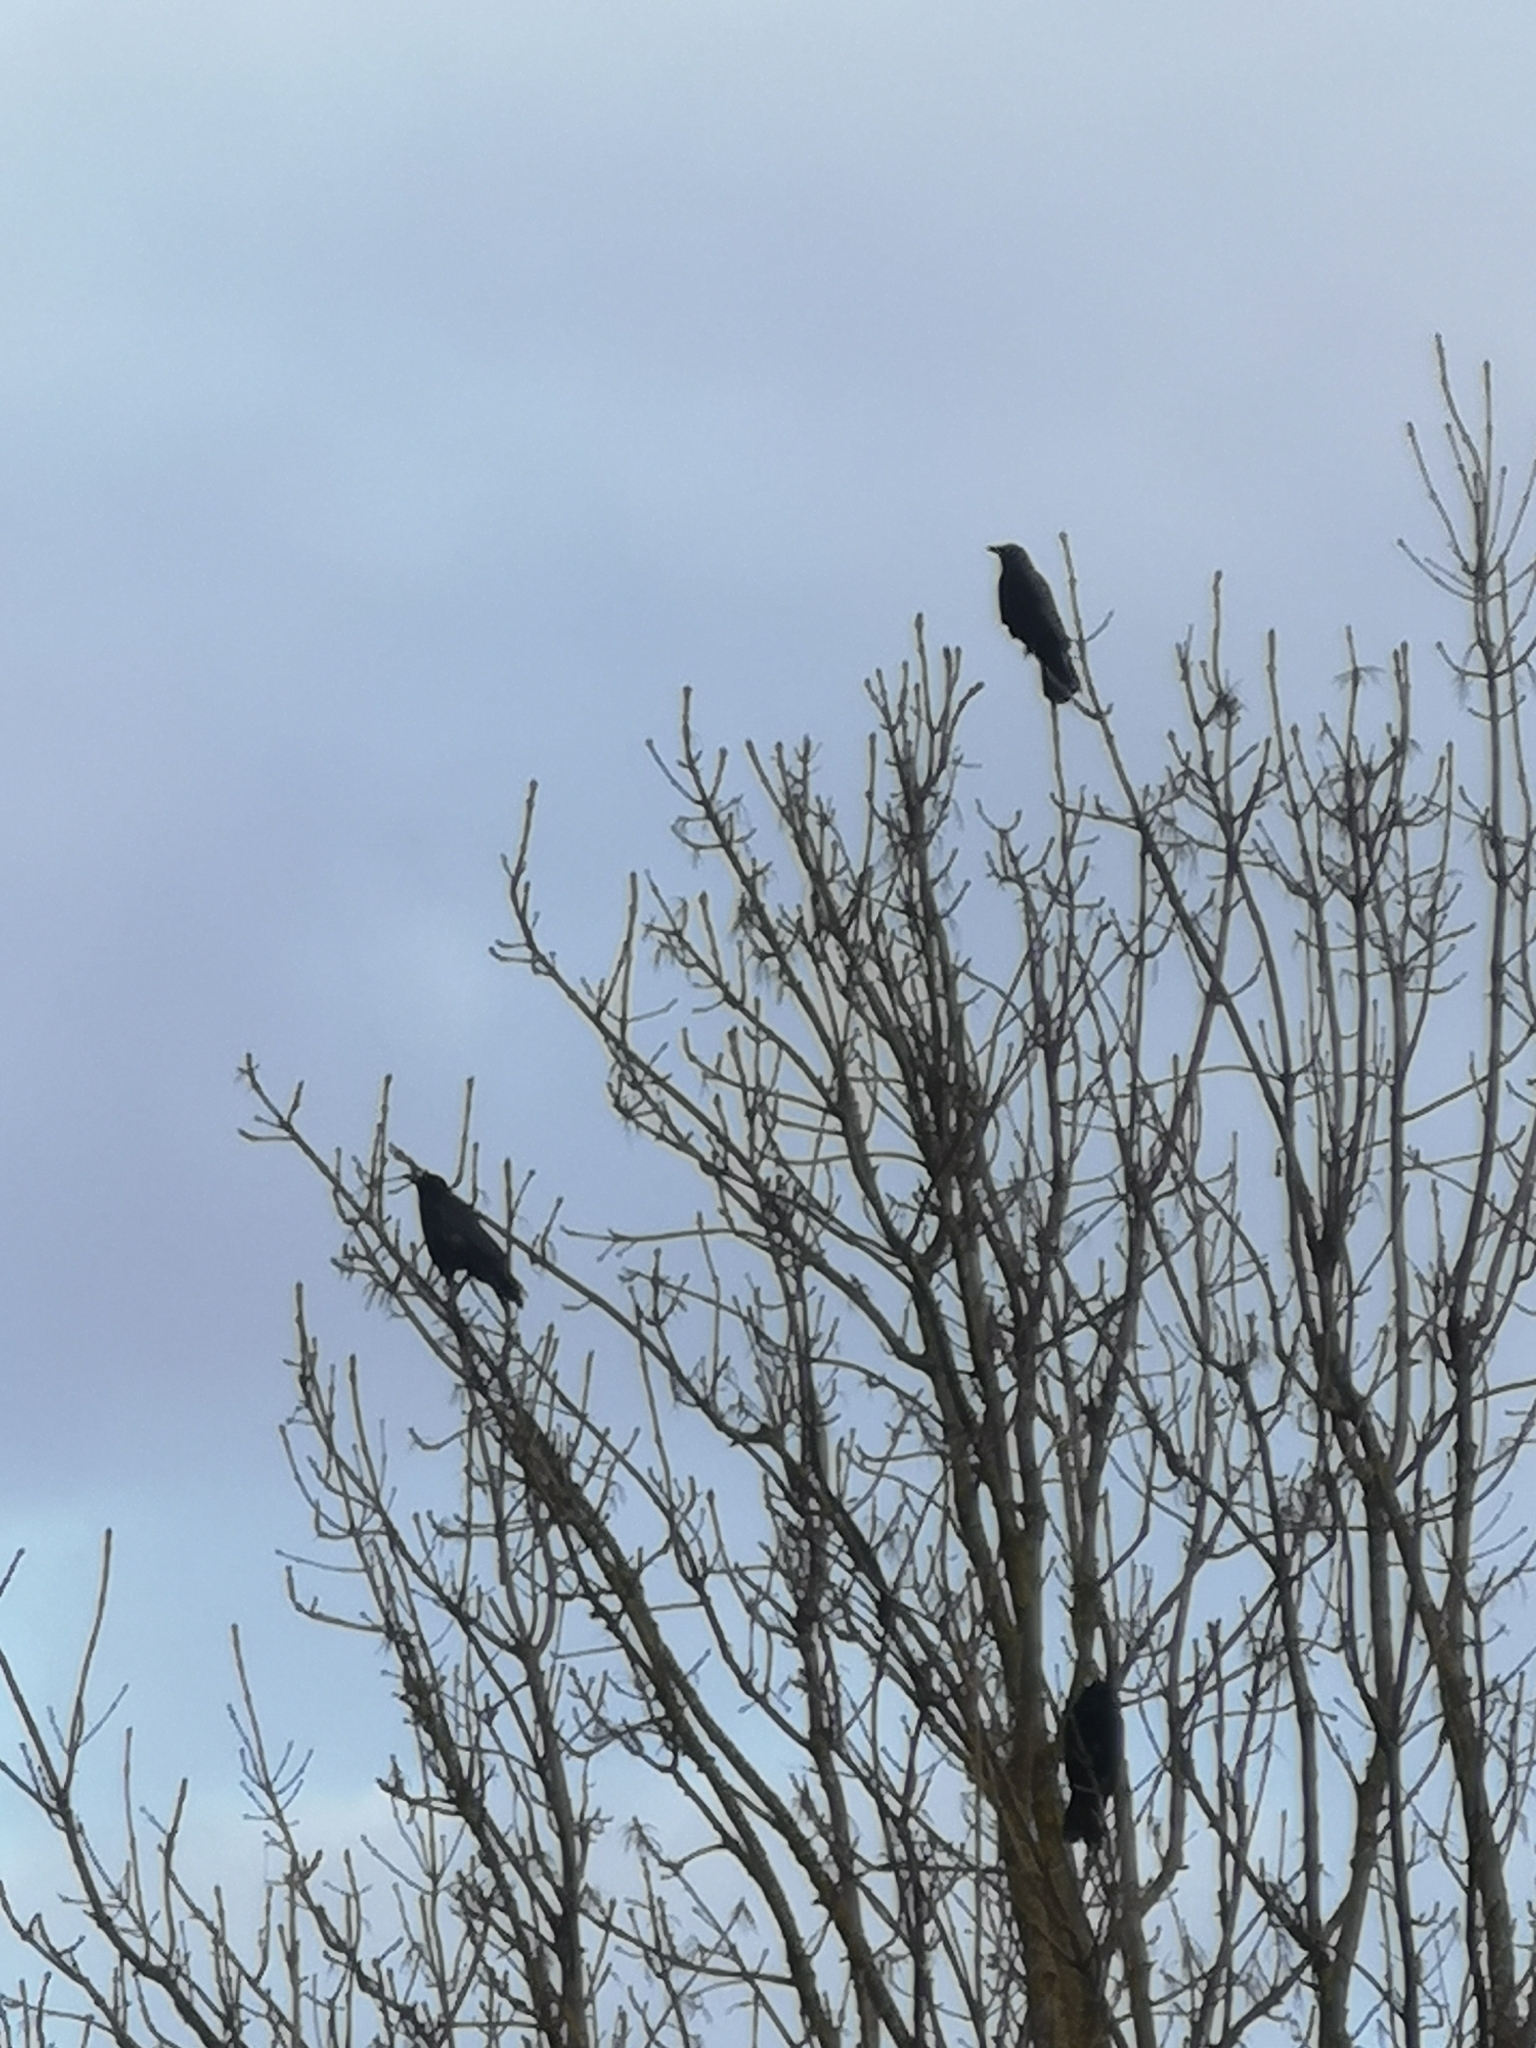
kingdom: Animalia
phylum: Chordata
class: Aves
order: Passeriformes
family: Corvidae
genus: Corvus
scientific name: Corvus corone
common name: Carrion crow
